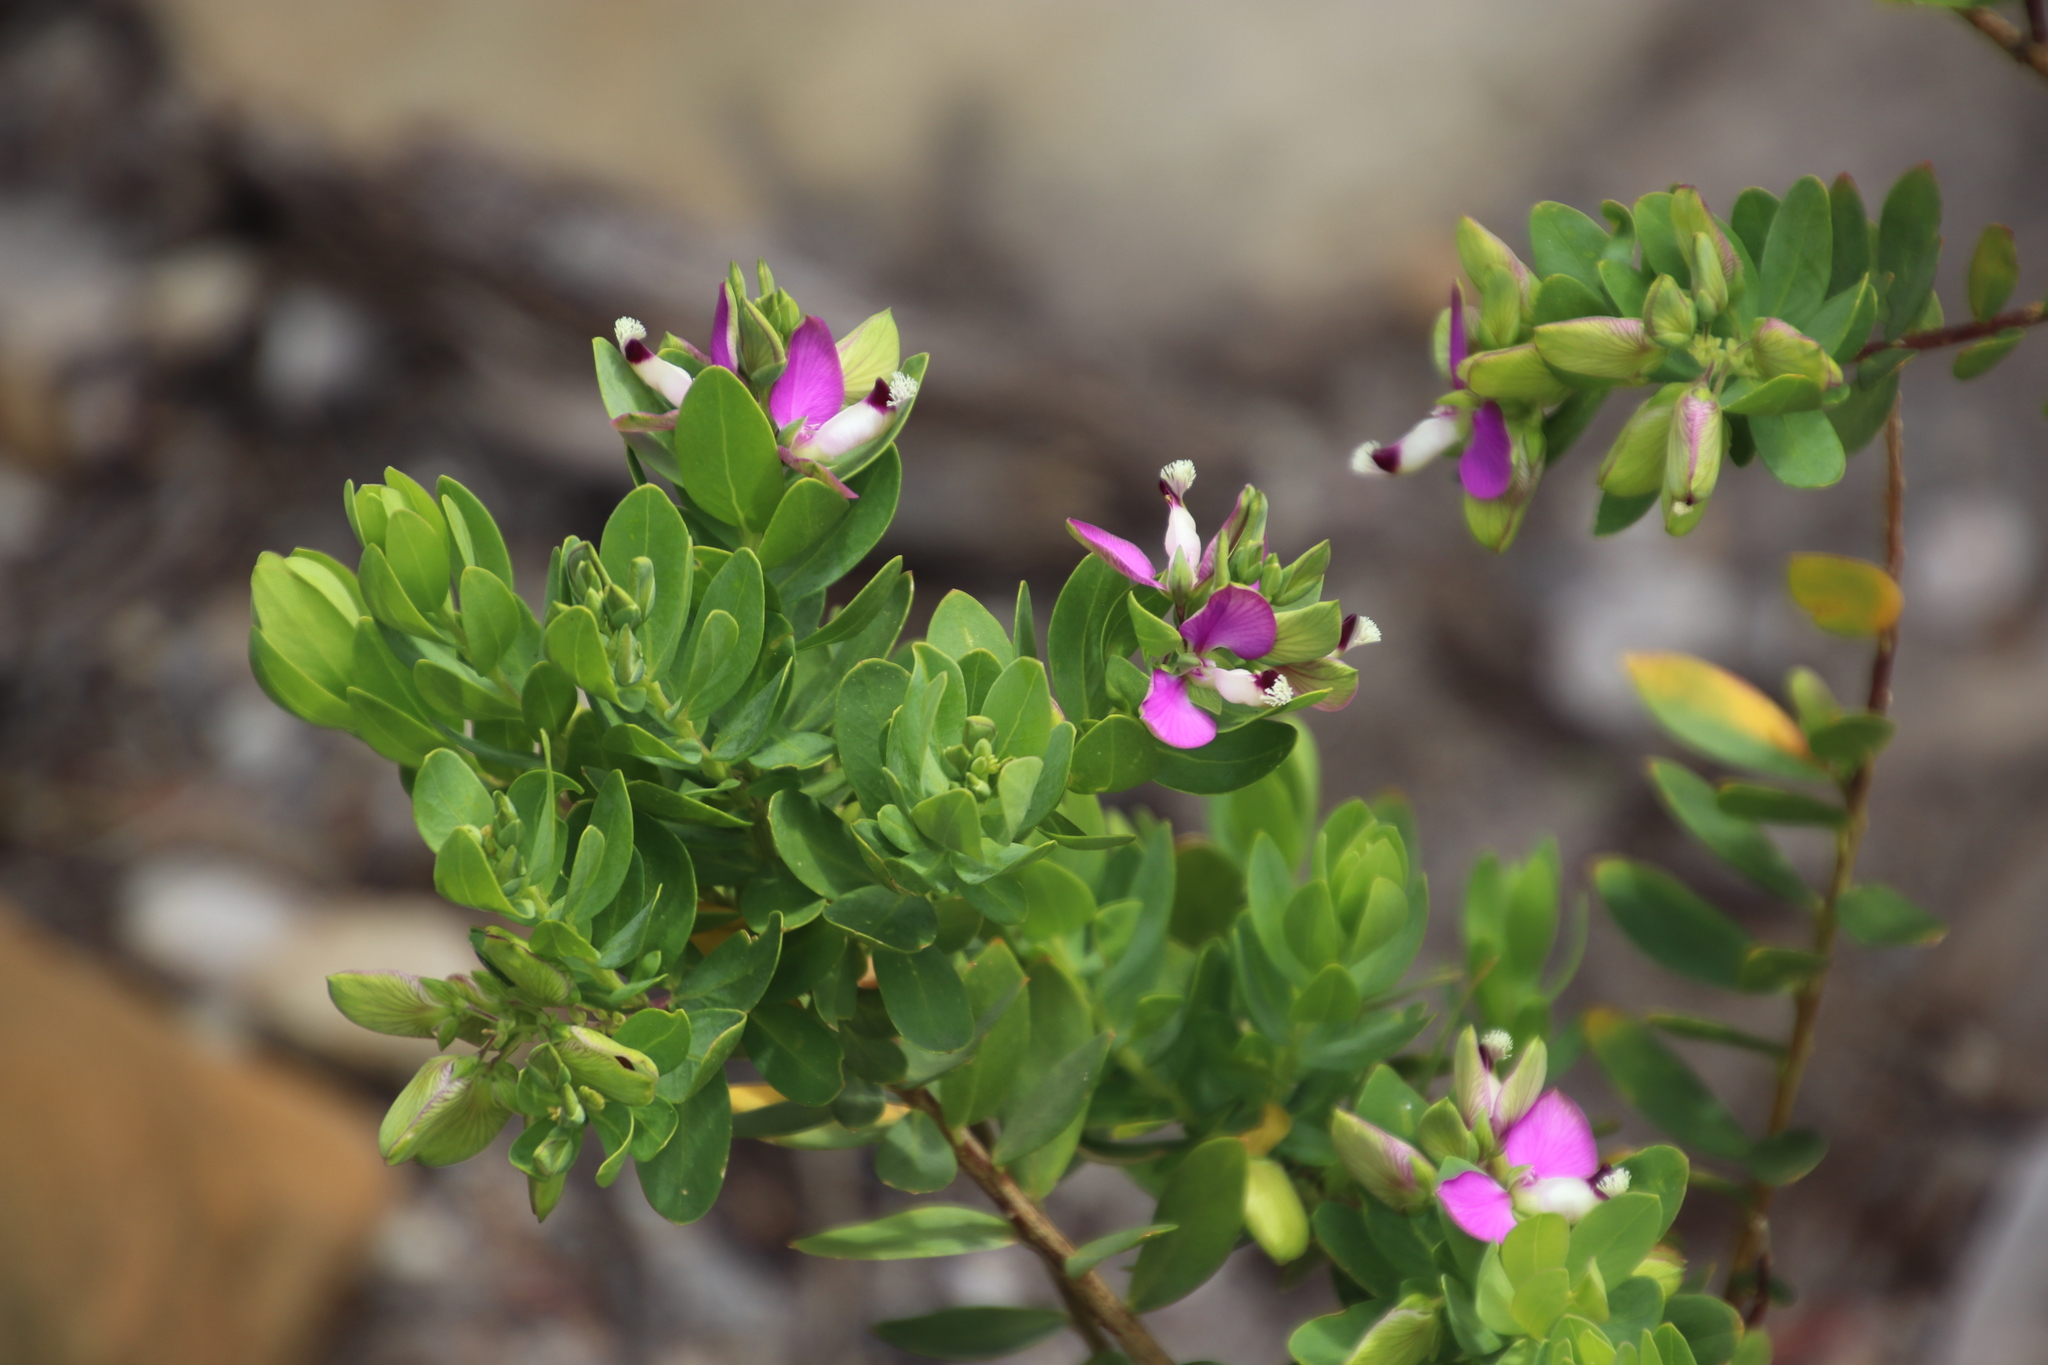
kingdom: Plantae
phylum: Tracheophyta
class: Magnoliopsida
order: Fabales
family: Polygalaceae
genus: Polygala
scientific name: Polygala myrtifolia
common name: Myrtle-leaf milkwort
